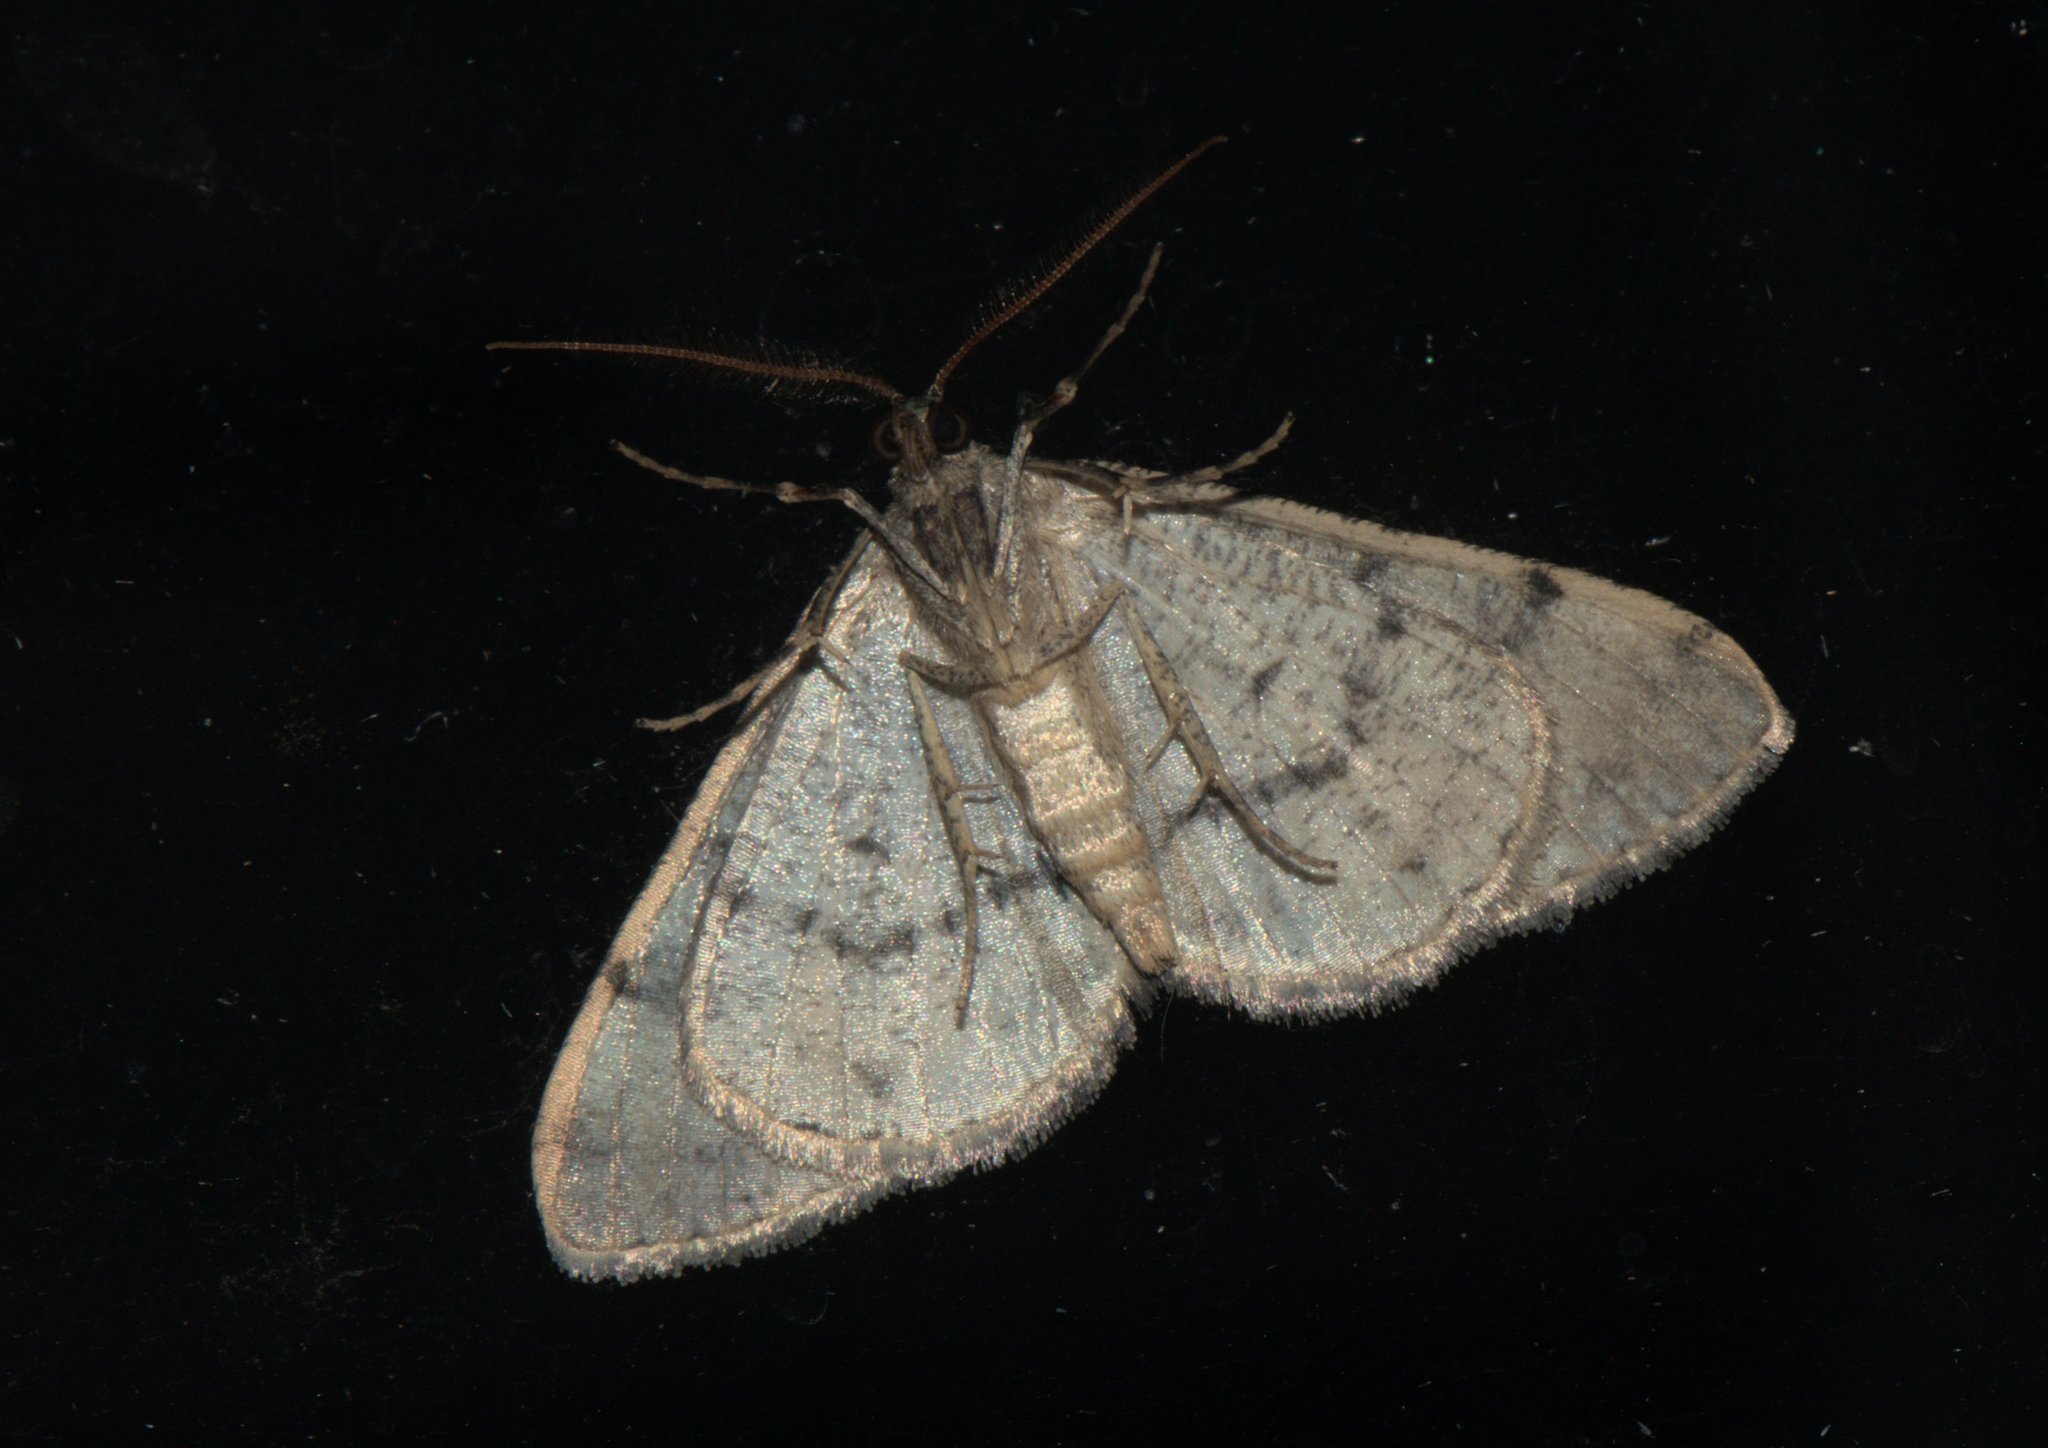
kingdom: Animalia
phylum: Arthropoda
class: Insecta
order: Lepidoptera
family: Geometridae
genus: Myrioblephara
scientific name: Myrioblephara duplexa
